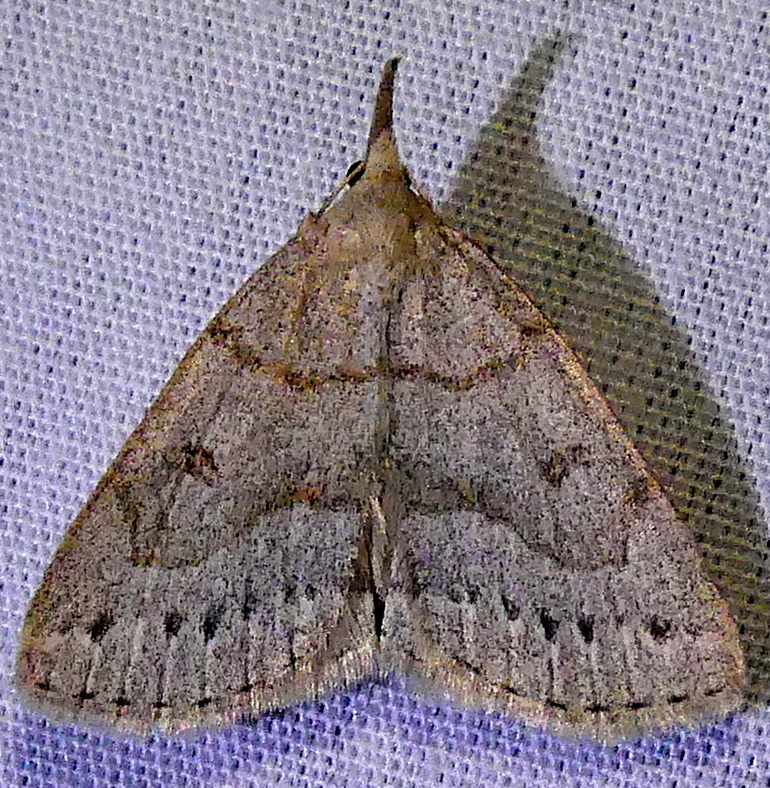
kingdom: Animalia
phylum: Arthropoda
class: Insecta
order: Lepidoptera
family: Erebidae
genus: Macrochilo
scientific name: Macrochilo morbidalis
